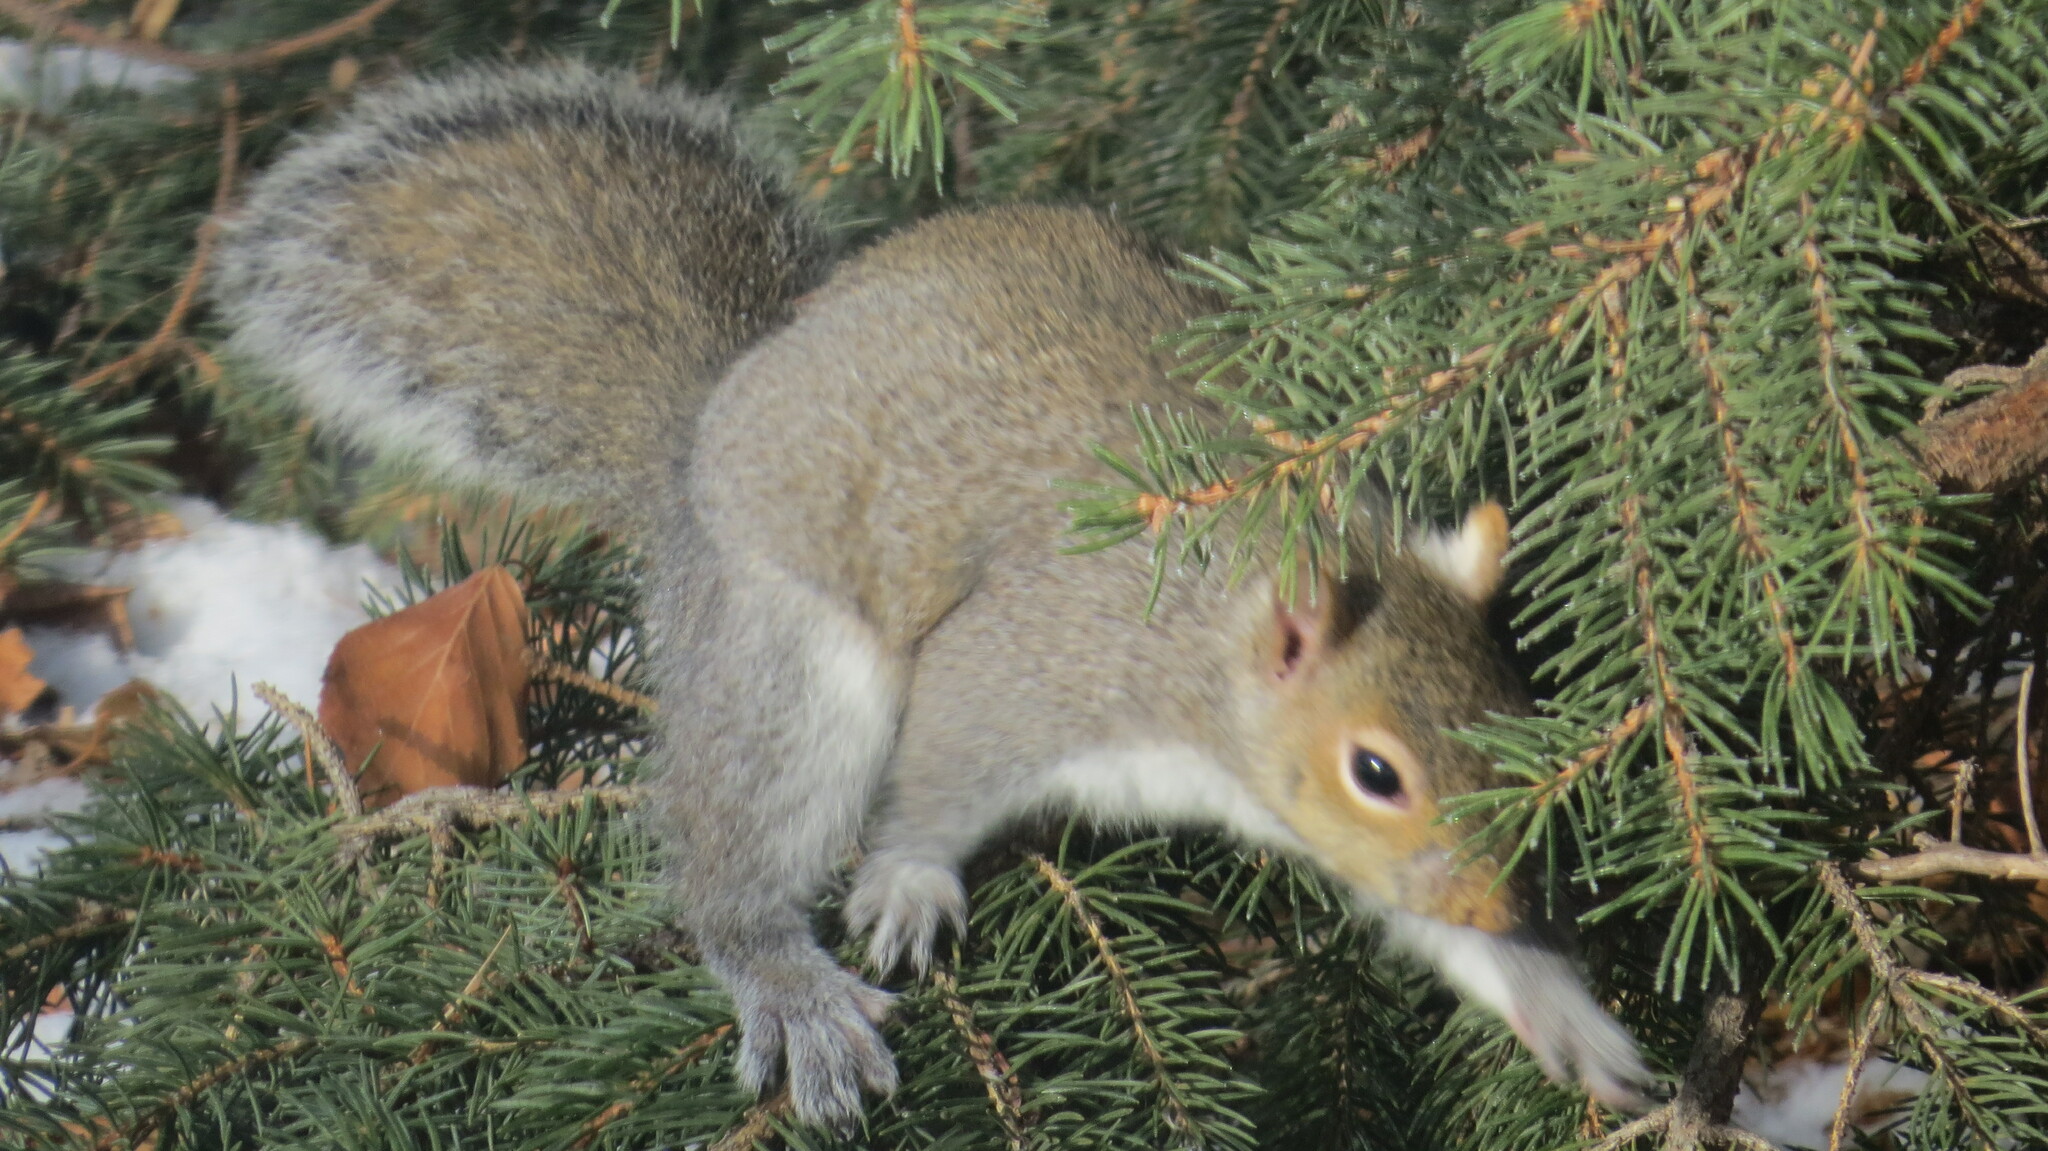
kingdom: Animalia
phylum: Chordata
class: Mammalia
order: Rodentia
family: Sciuridae
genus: Sciurus
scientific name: Sciurus carolinensis
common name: Eastern gray squirrel
